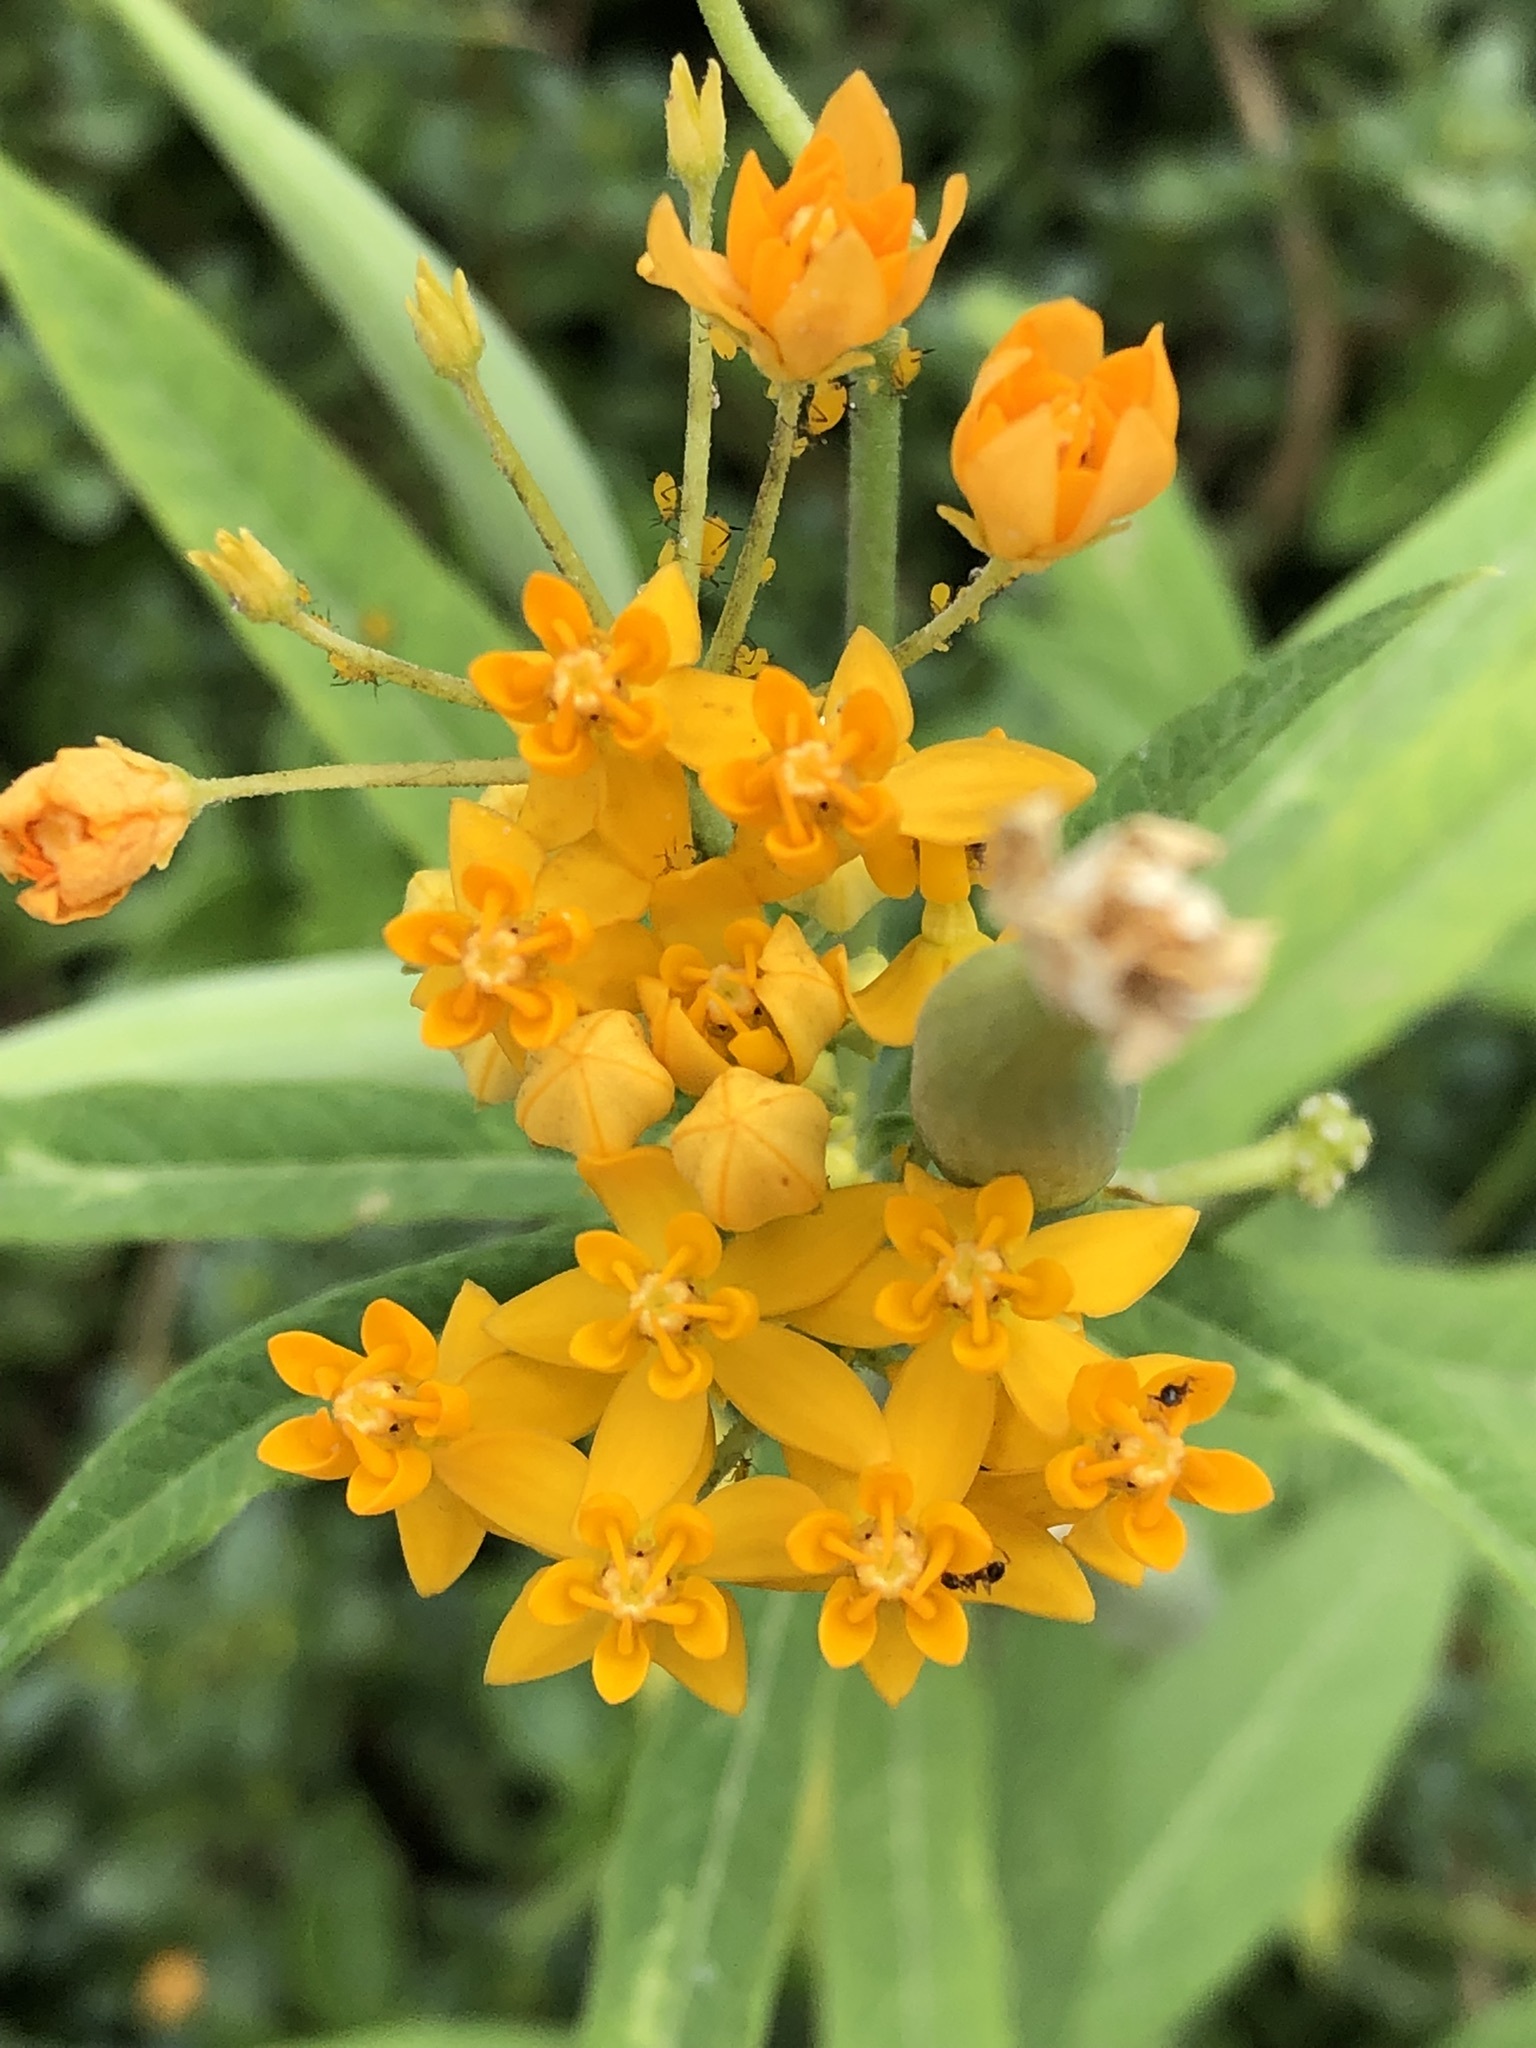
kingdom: Plantae
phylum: Tracheophyta
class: Magnoliopsida
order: Gentianales
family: Apocynaceae
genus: Asclepias
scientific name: Asclepias curassavica
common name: Bloodflower
